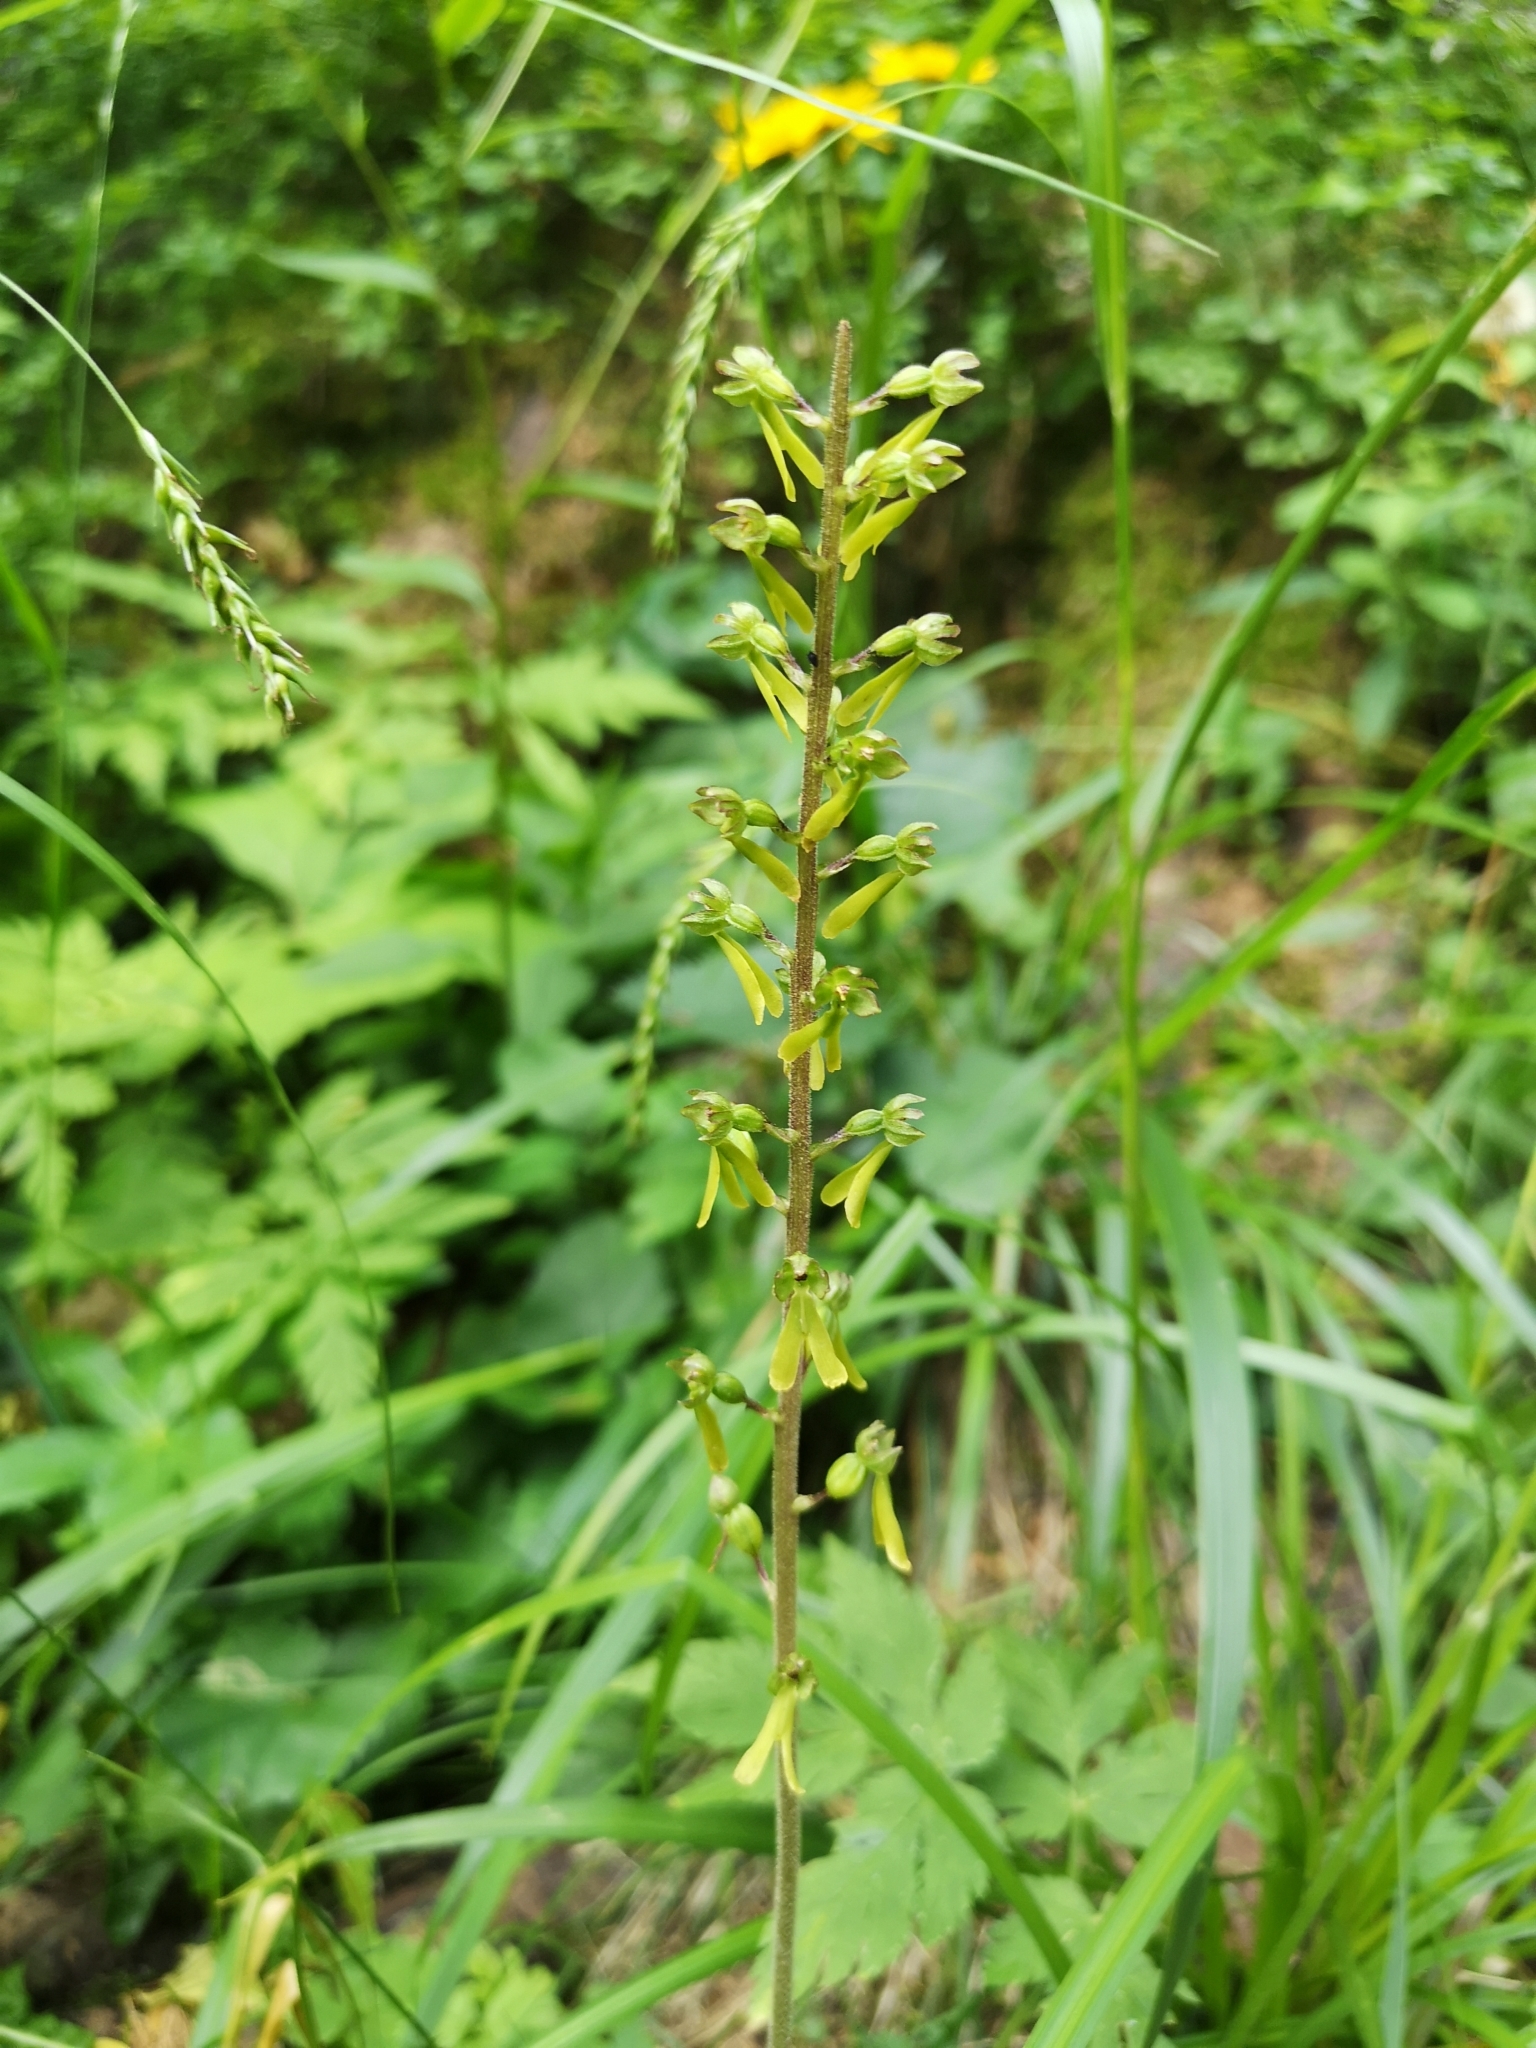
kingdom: Plantae
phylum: Tracheophyta
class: Liliopsida
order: Asparagales
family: Orchidaceae
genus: Neottia
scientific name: Neottia ovata
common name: Common twayblade
